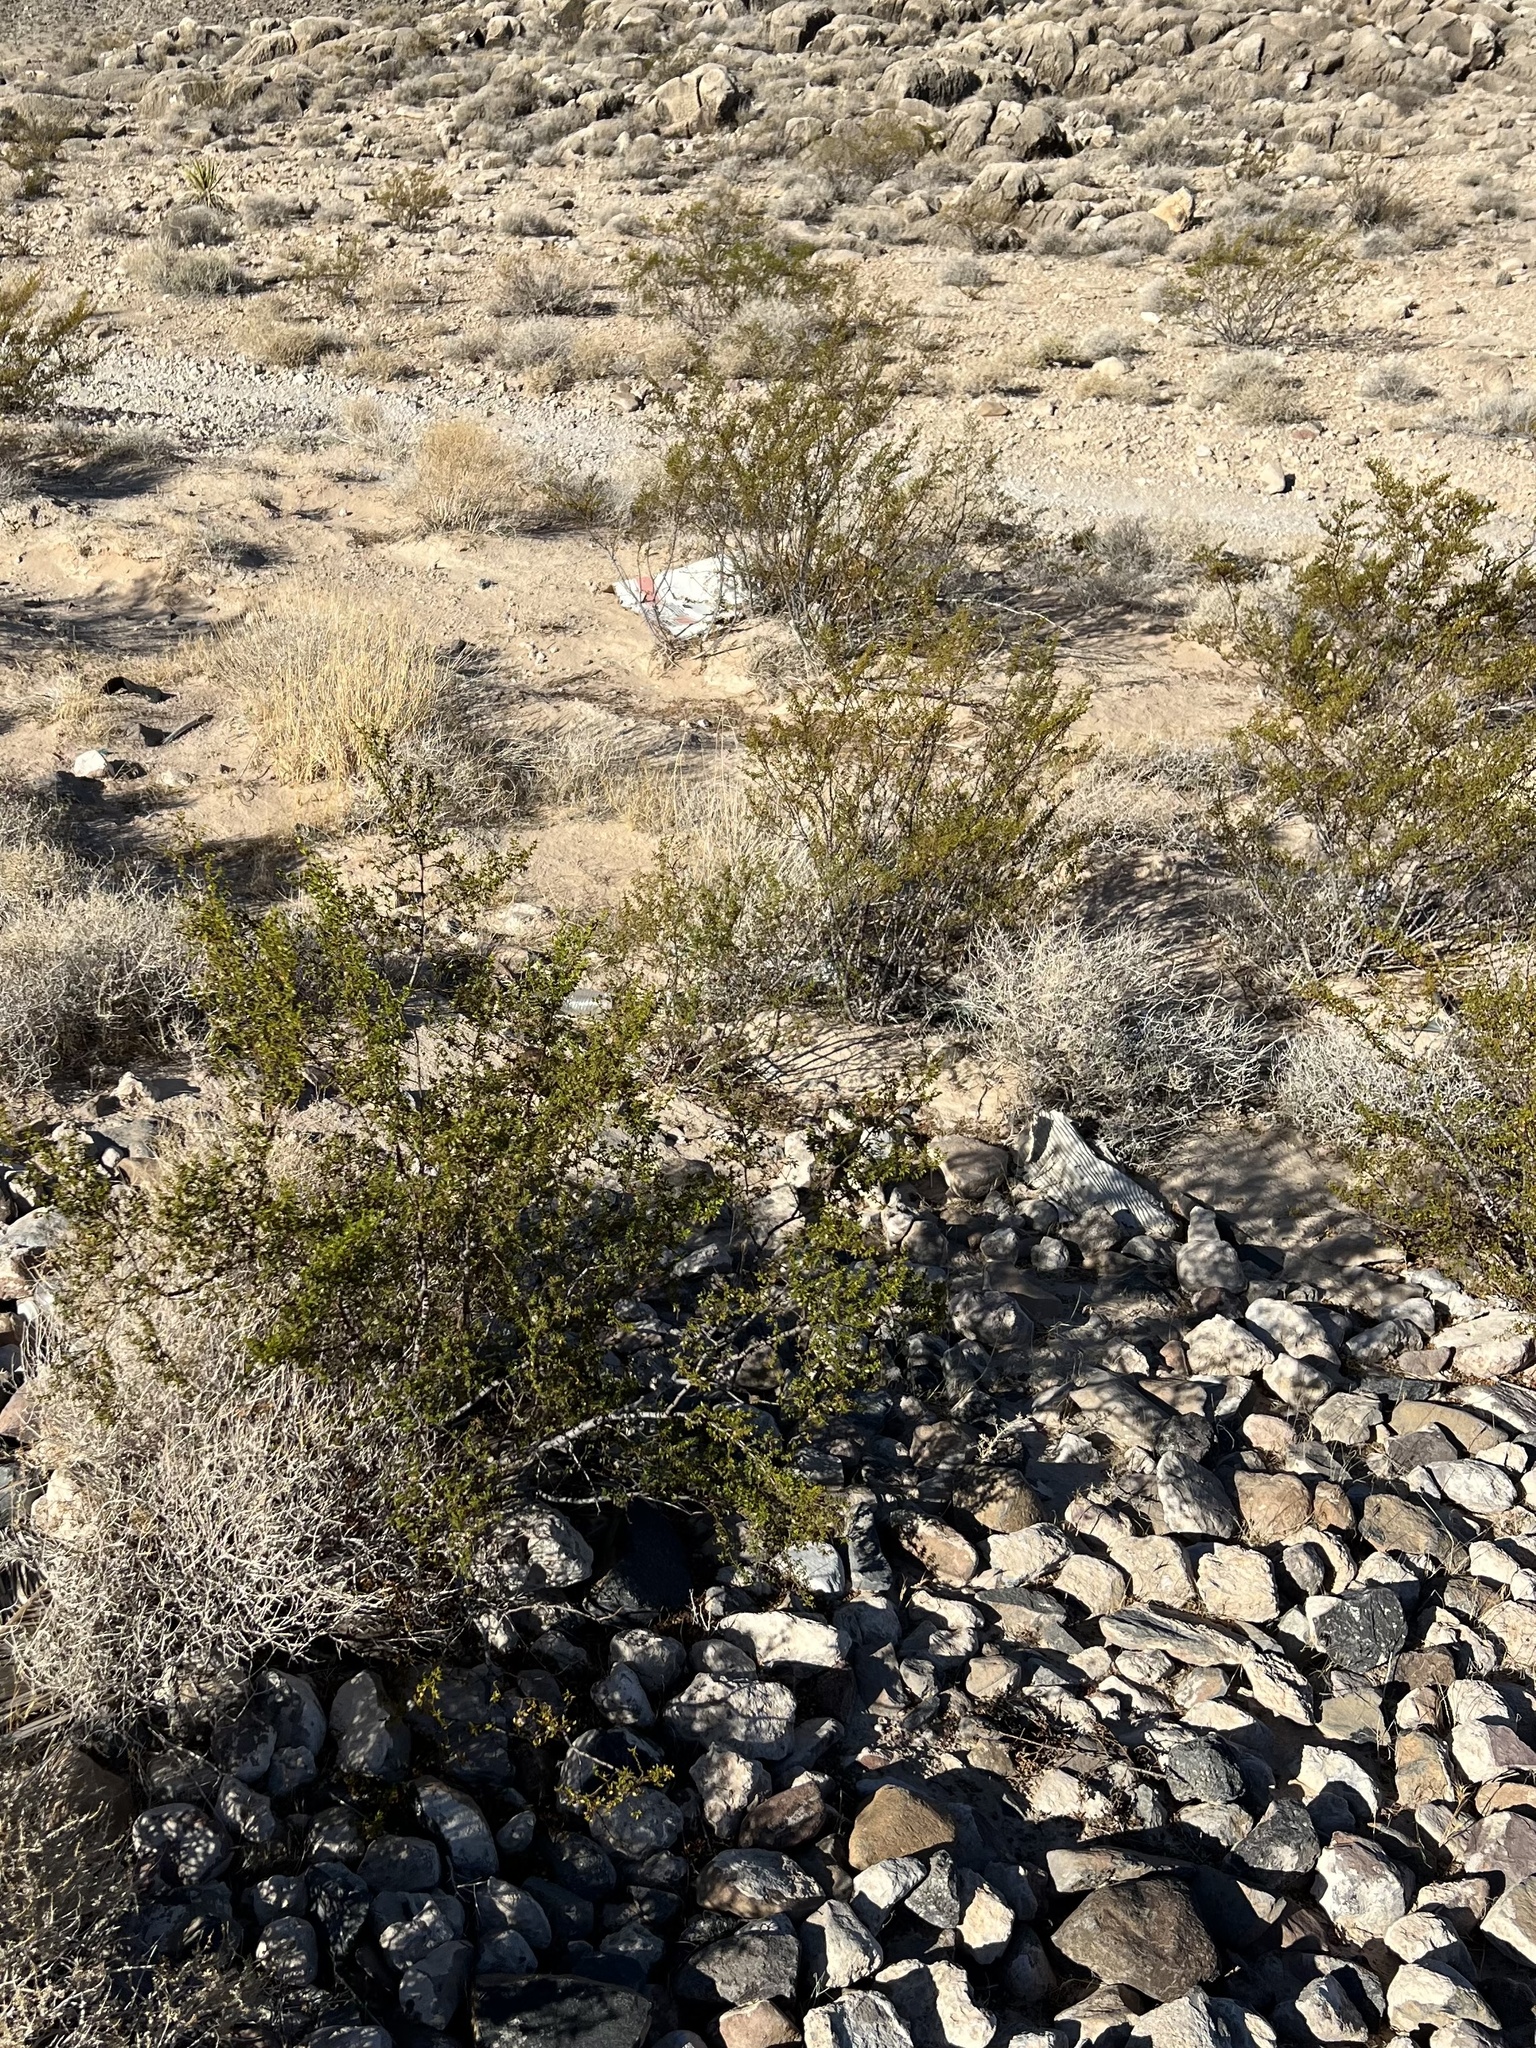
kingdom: Plantae
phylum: Tracheophyta
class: Magnoliopsida
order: Zygophyllales
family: Zygophyllaceae
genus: Larrea
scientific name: Larrea tridentata
